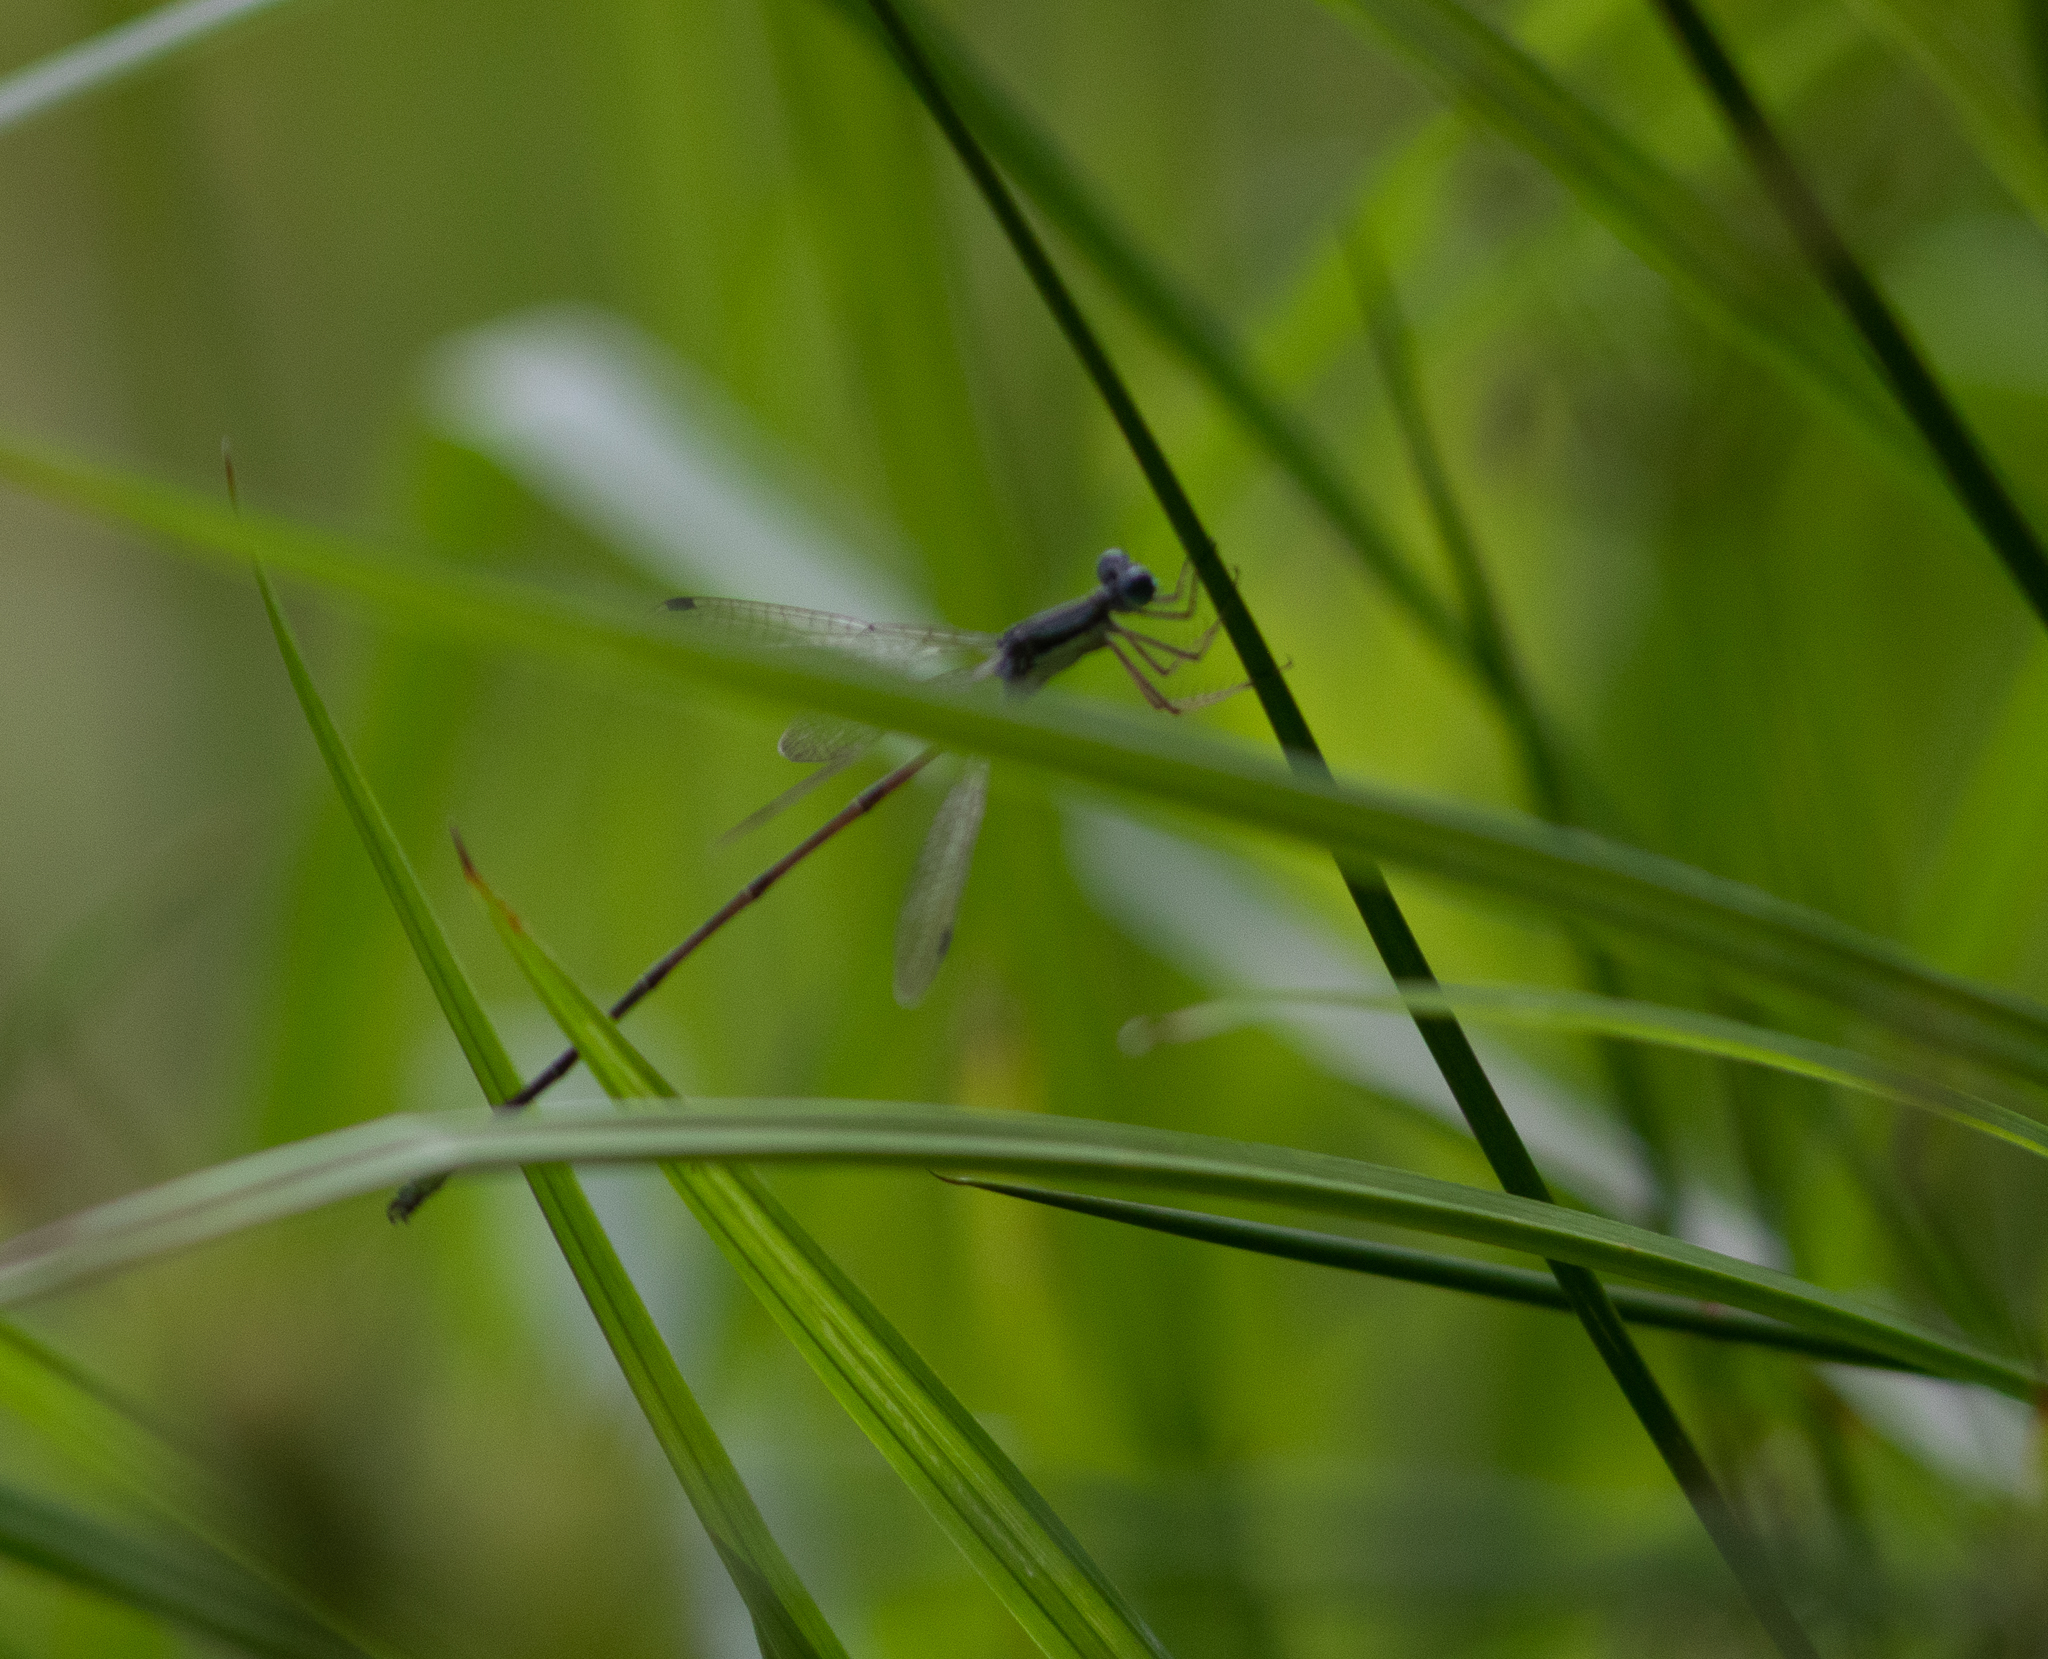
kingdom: Animalia
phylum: Arthropoda
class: Insecta
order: Odonata
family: Lestidae
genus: Lestes
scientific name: Lestes rectangularis
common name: Slender spreadwing
